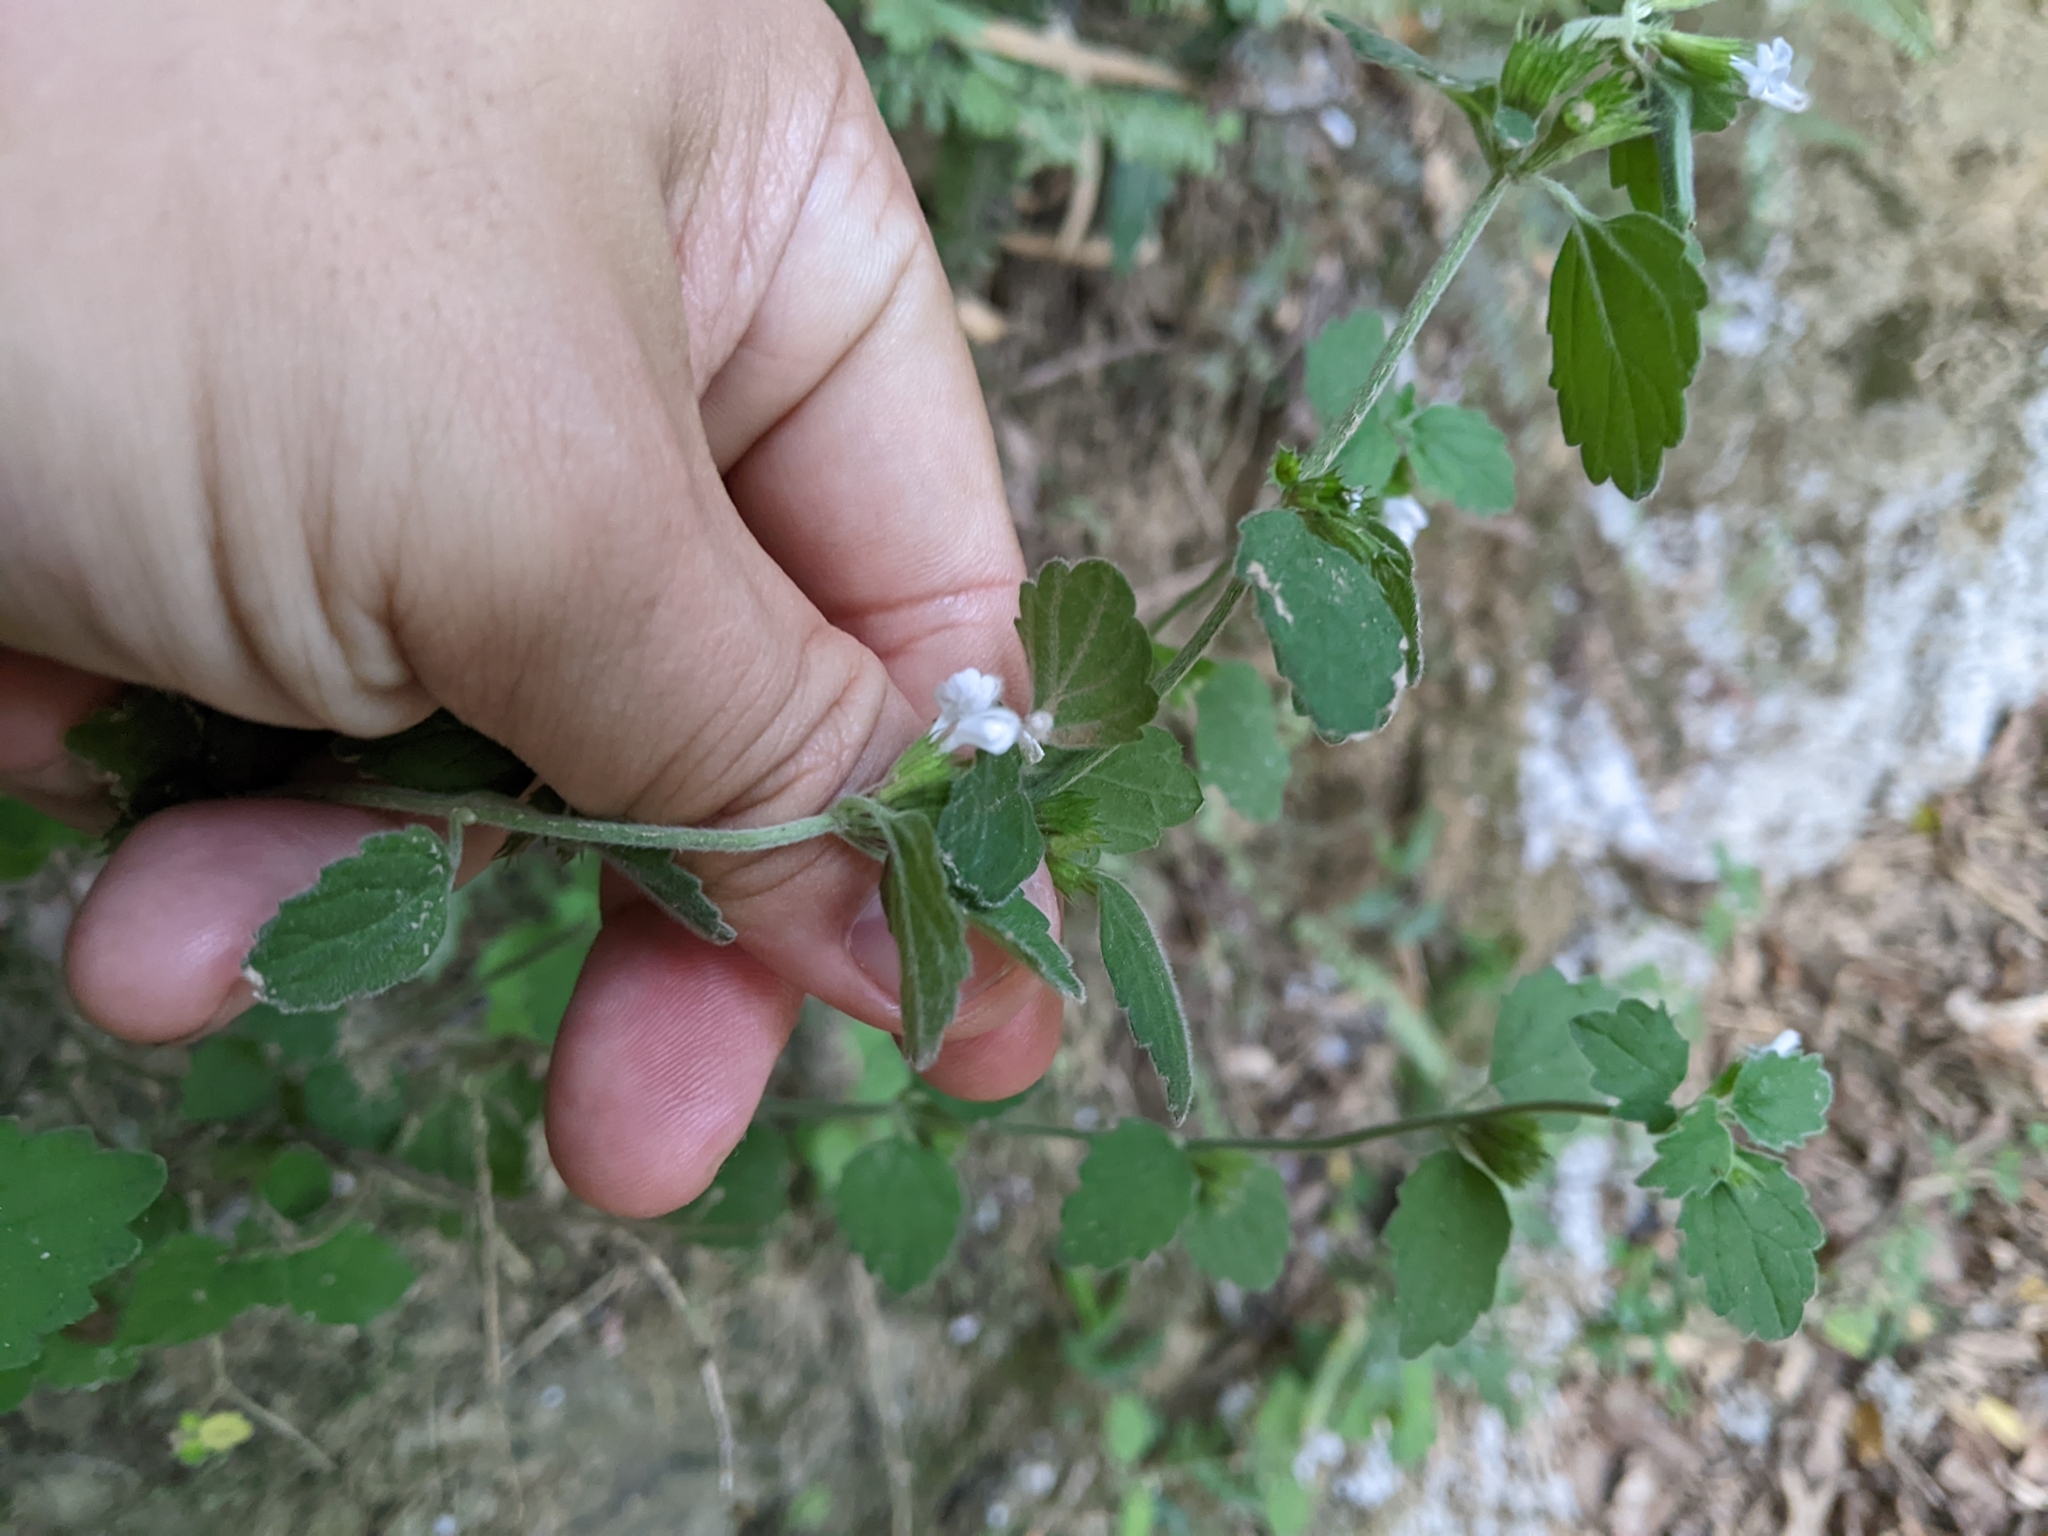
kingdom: Plantae
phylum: Tracheophyta
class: Magnoliopsida
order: Lamiales
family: Lamiaceae
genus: Leucas
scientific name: Leucas chinensis
